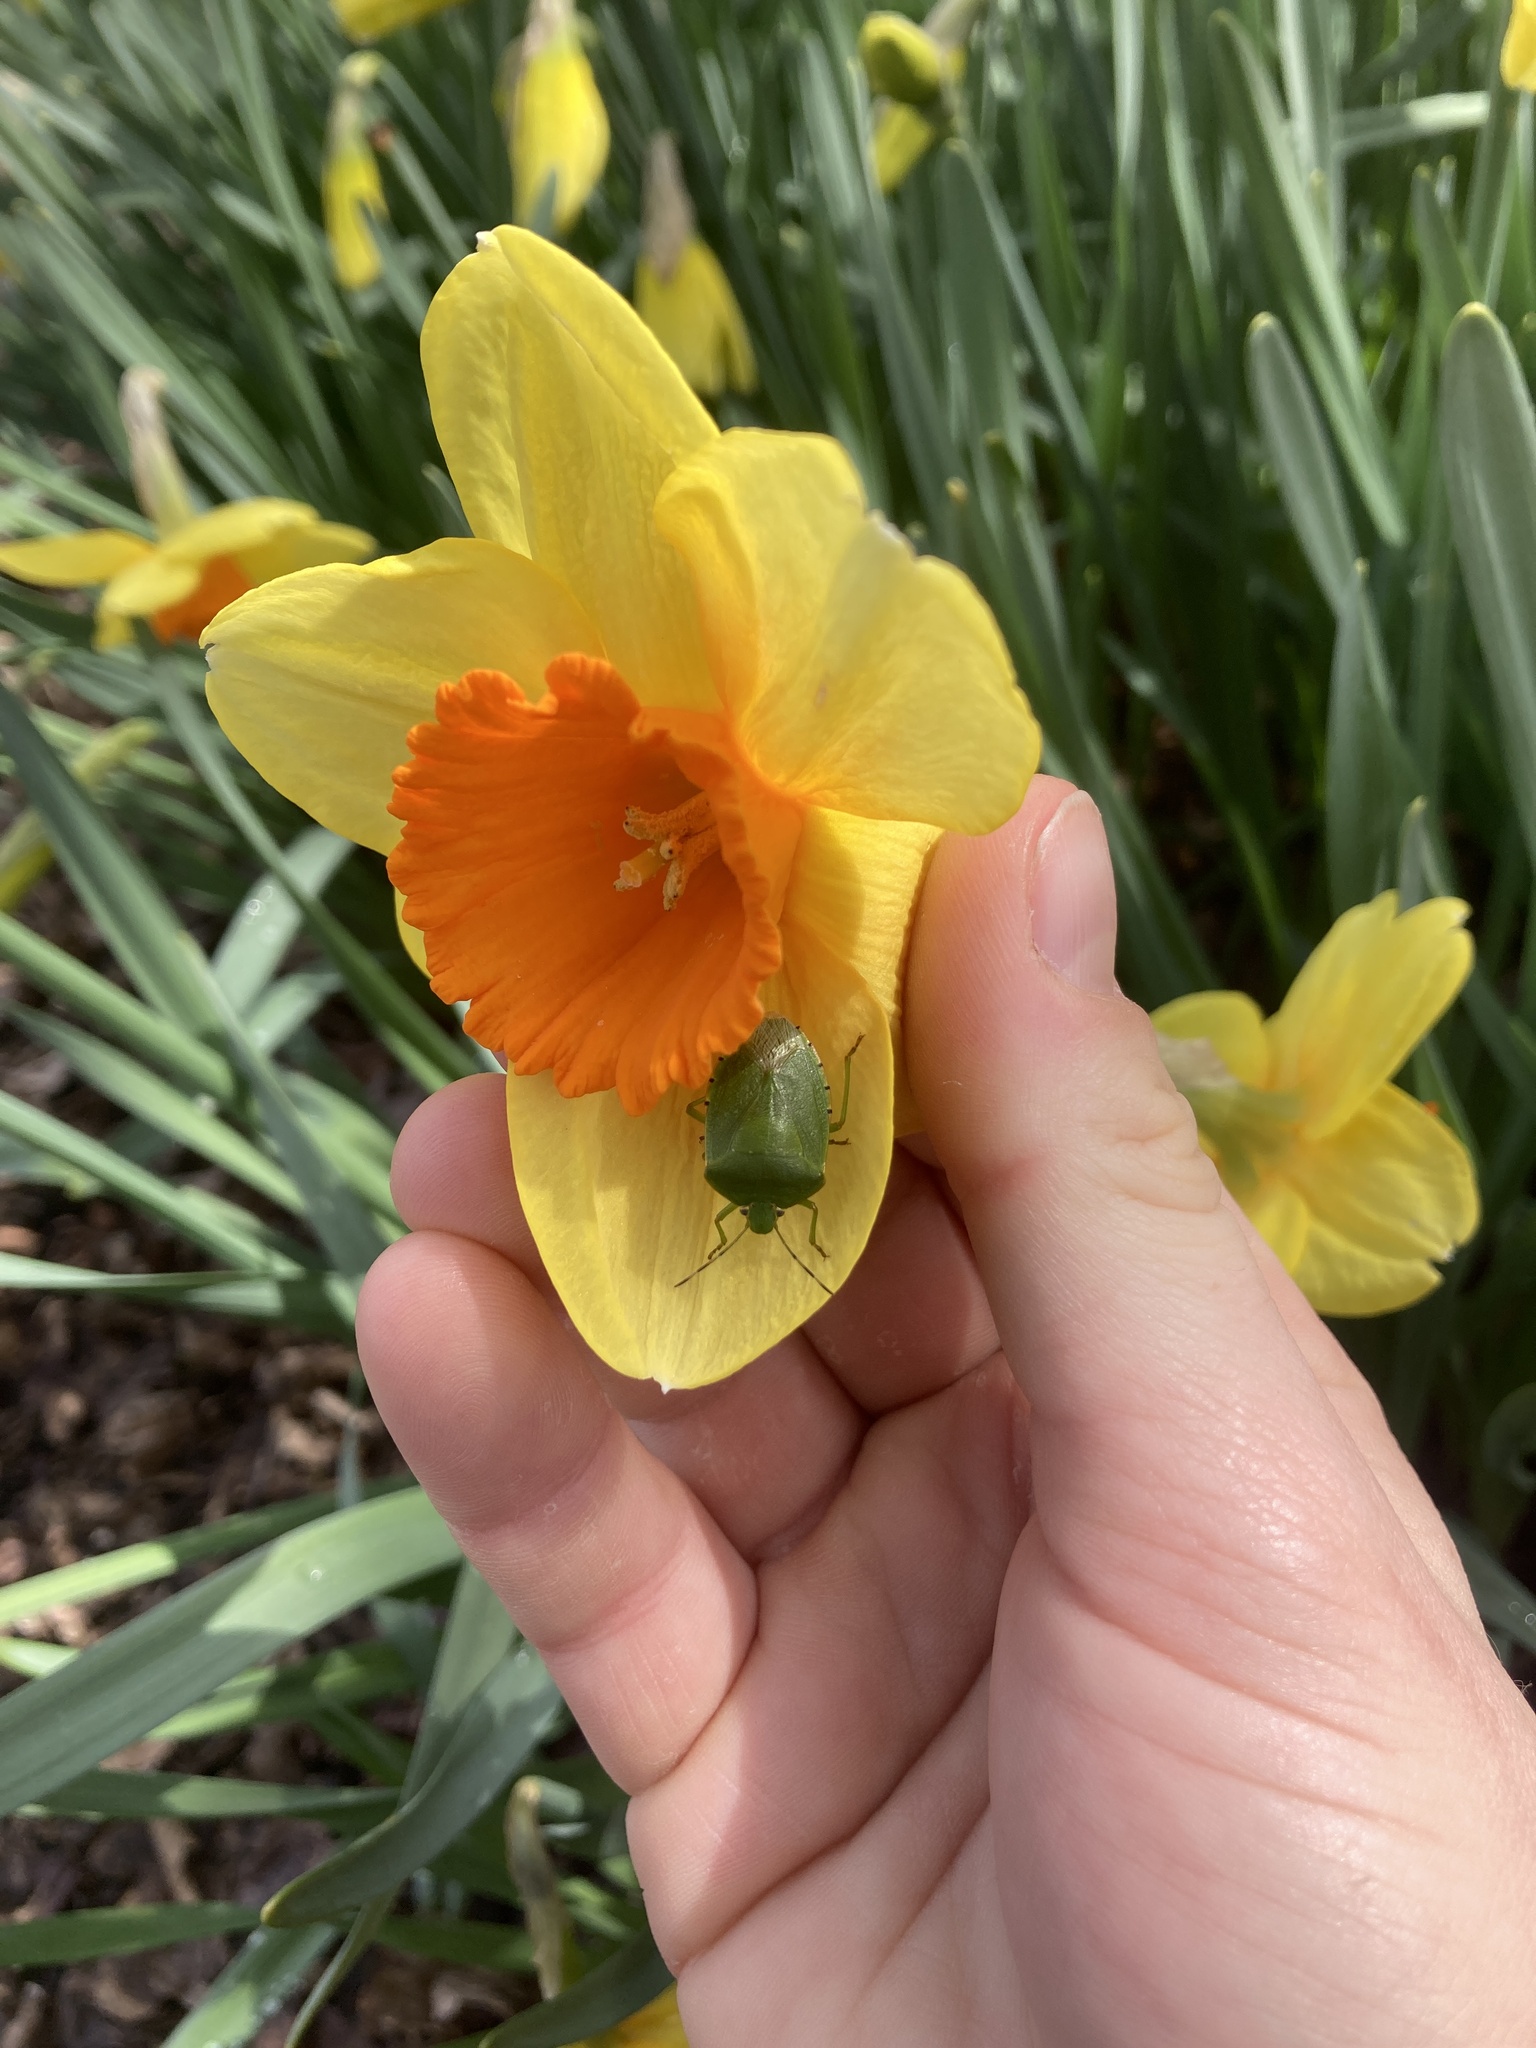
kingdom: Animalia
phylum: Arthropoda
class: Insecta
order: Hemiptera
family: Pentatomidae
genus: Chinavia
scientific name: Chinavia hilaris
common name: Green stink bug
